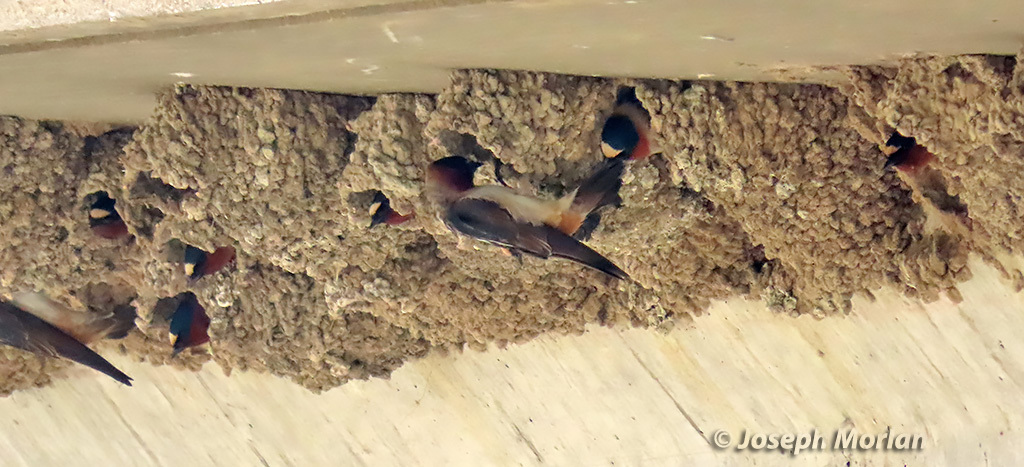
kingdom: Animalia
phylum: Chordata
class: Aves
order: Passeriformes
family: Hirundinidae
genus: Petrochelidon
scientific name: Petrochelidon pyrrhonota
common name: American cliff swallow
